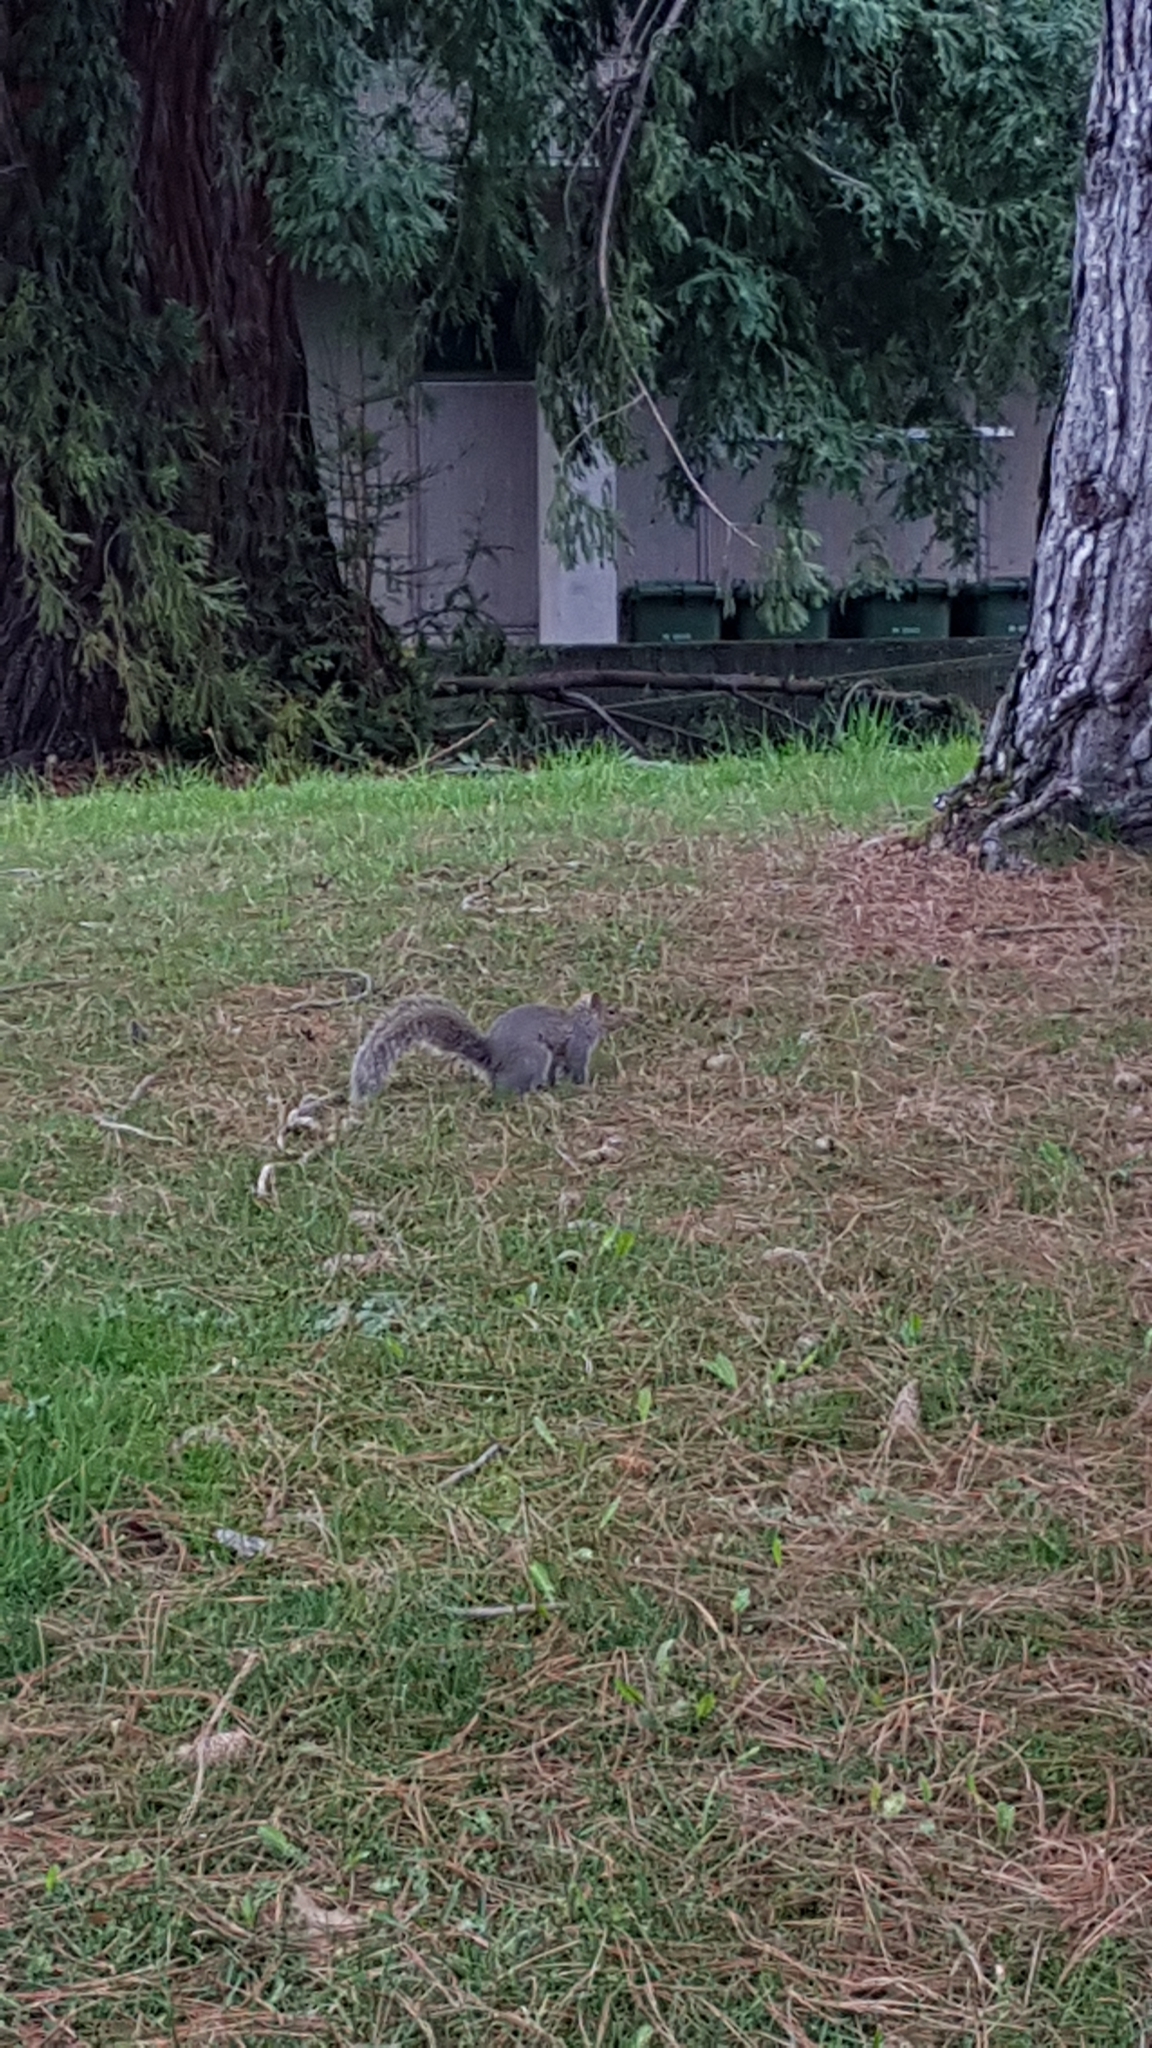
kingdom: Animalia
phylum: Chordata
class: Mammalia
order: Rodentia
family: Sciuridae
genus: Sciurus
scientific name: Sciurus carolinensis
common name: Eastern gray squirrel
